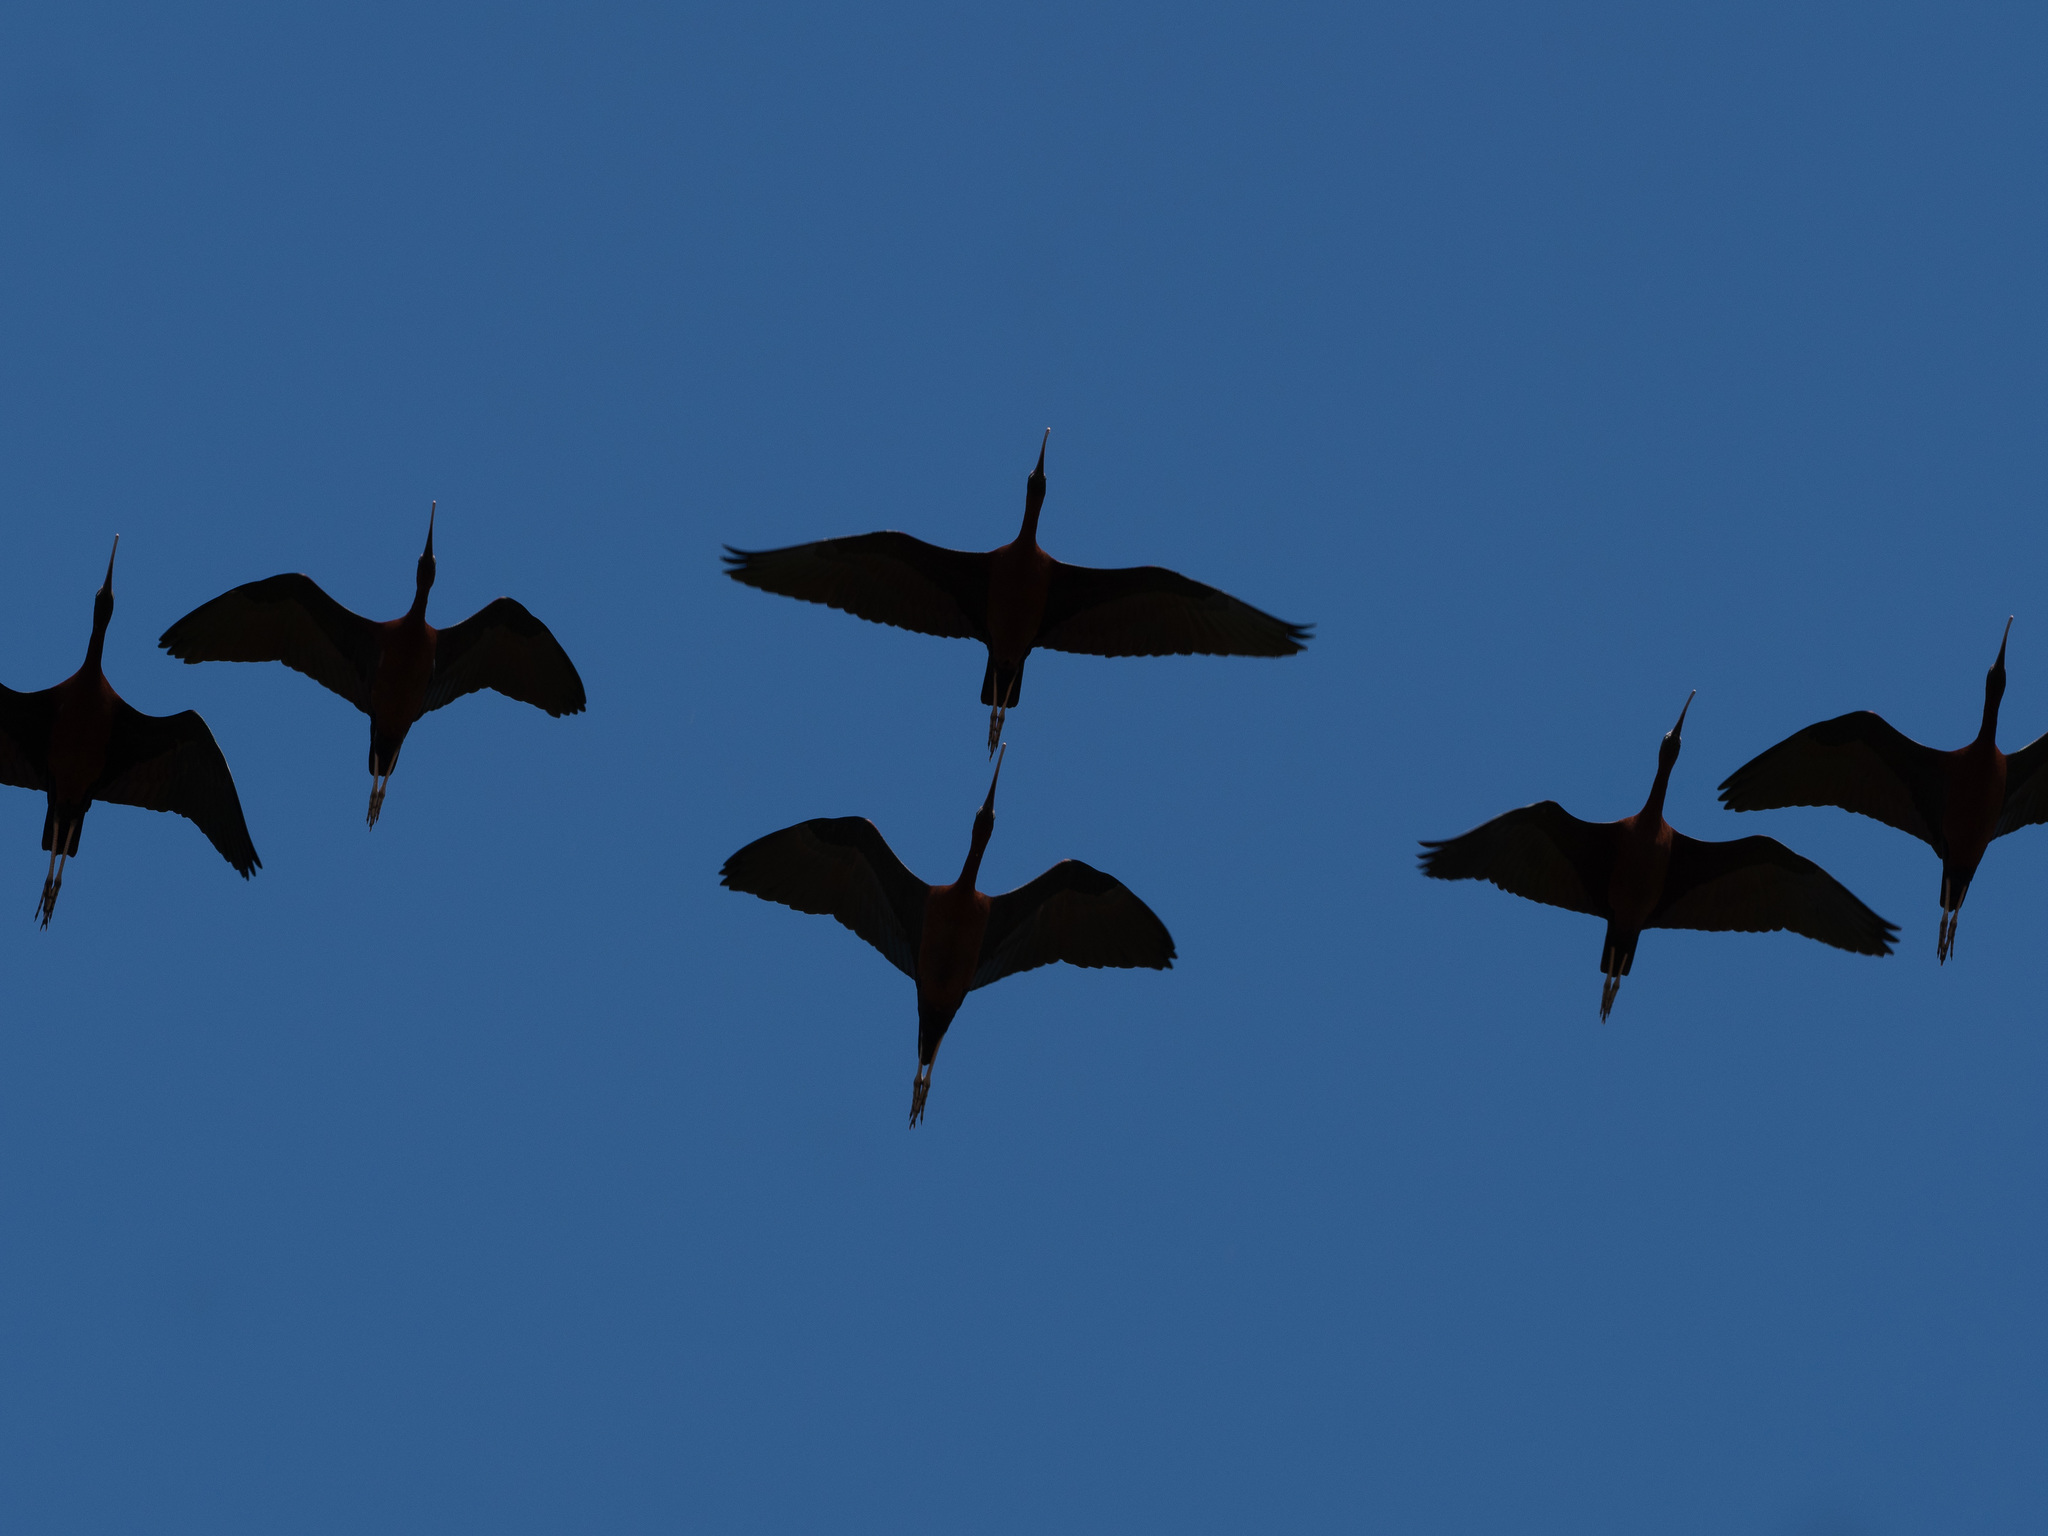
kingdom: Animalia
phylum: Chordata
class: Aves
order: Pelecaniformes
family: Threskiornithidae
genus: Plegadis
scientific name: Plegadis falcinellus
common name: Glossy ibis
